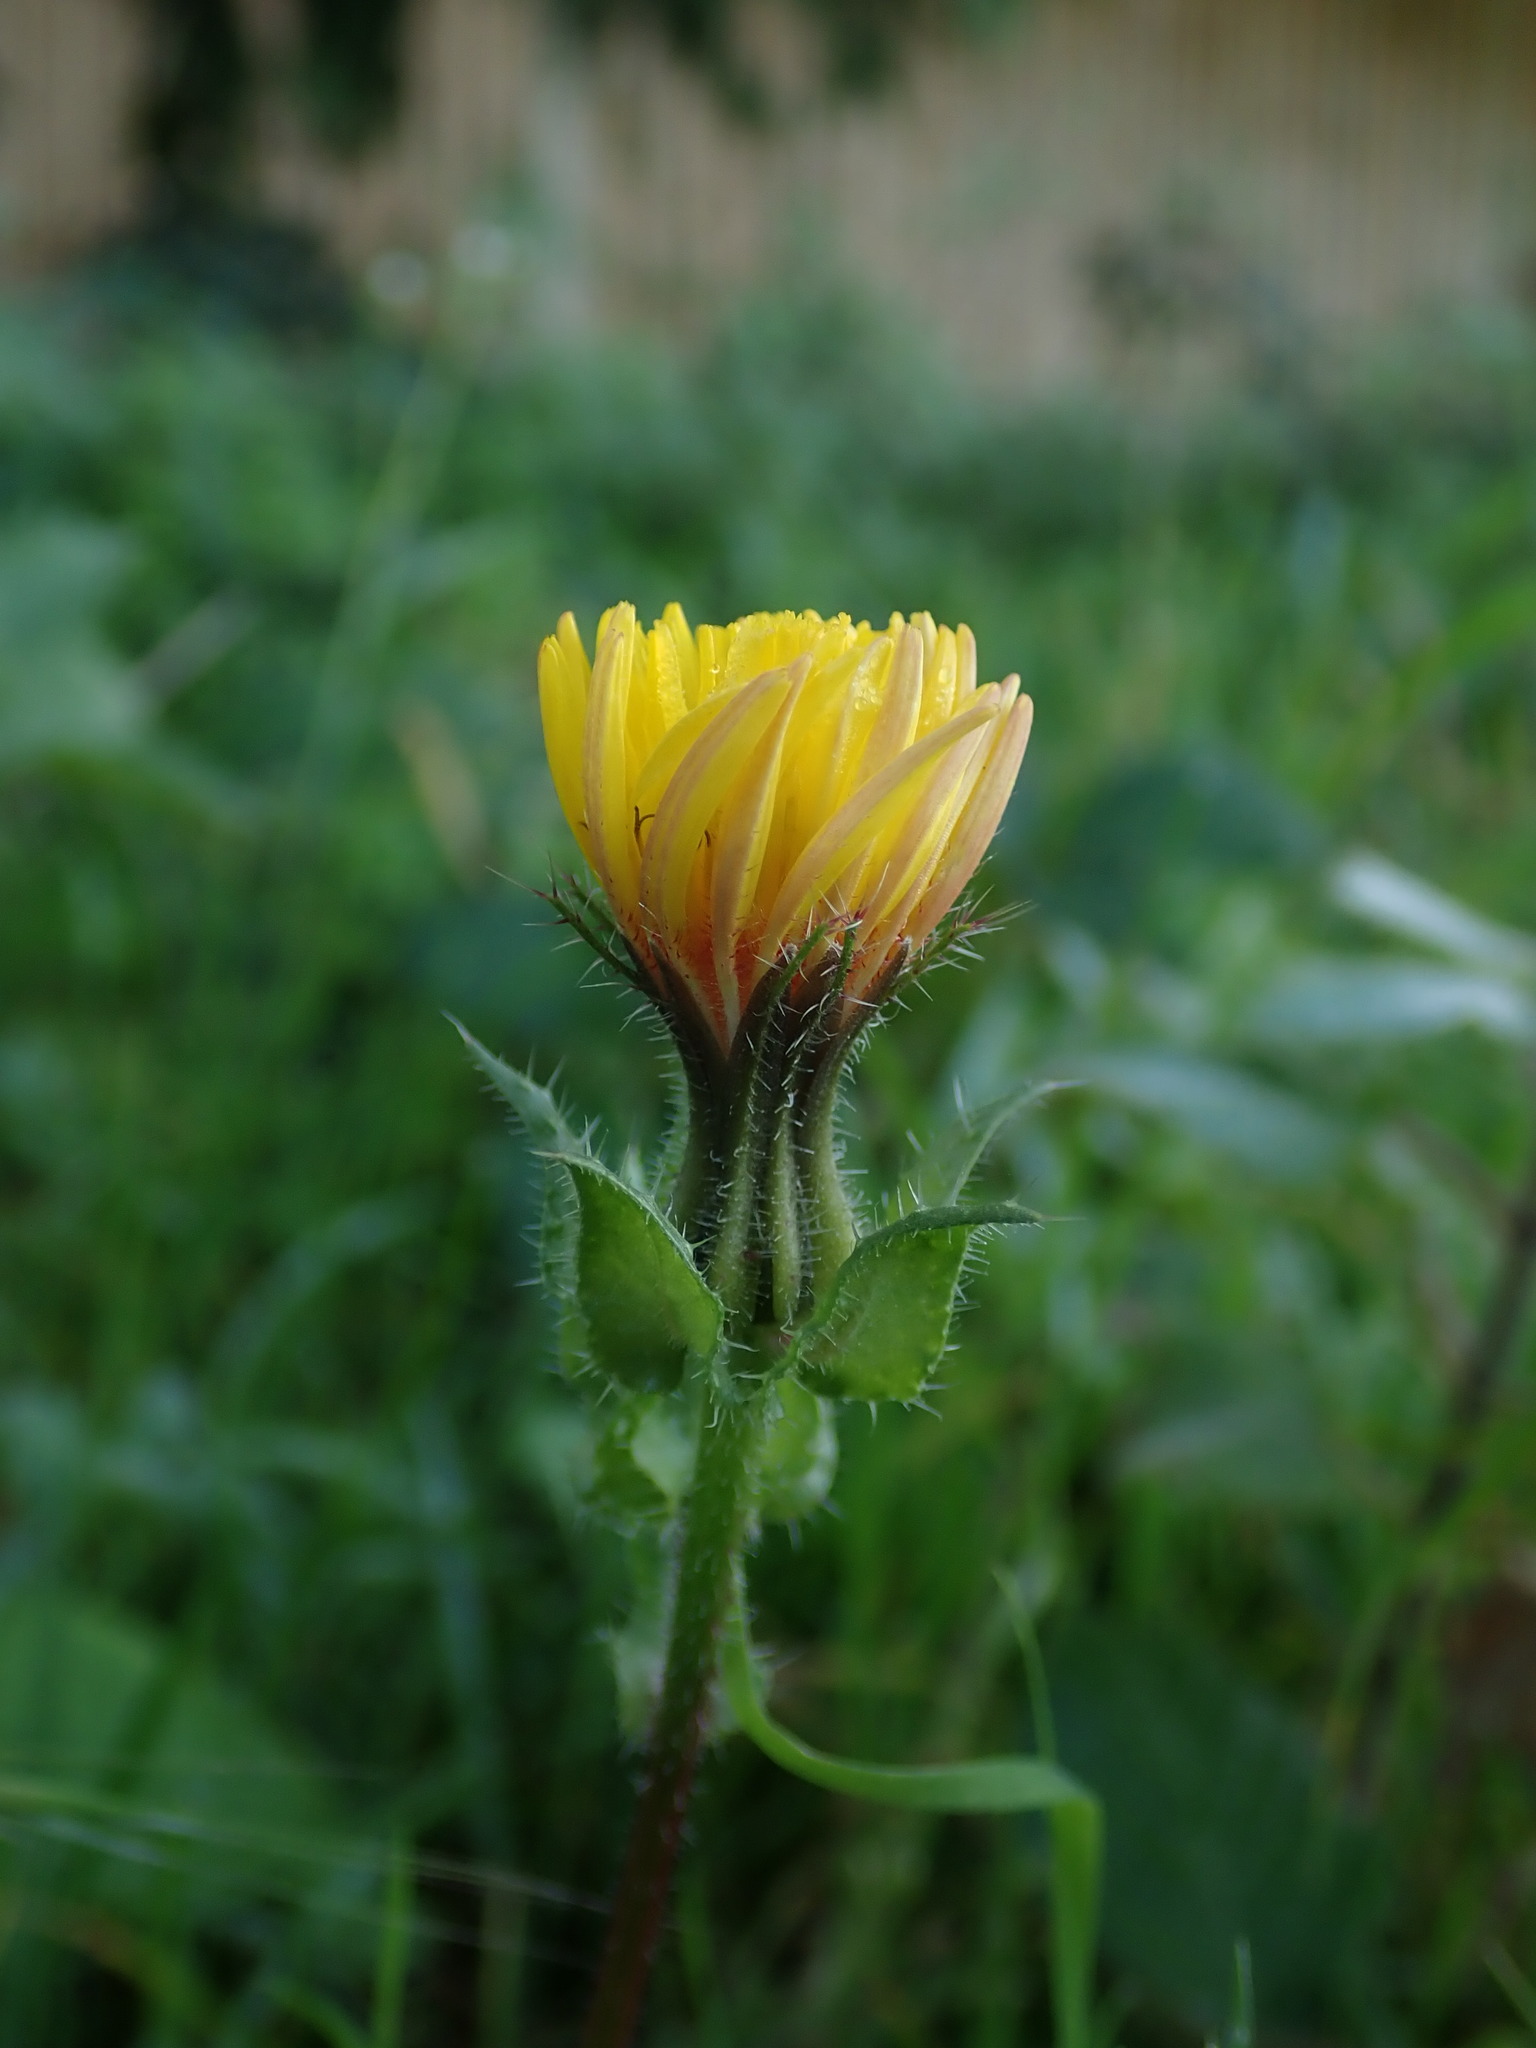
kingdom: Plantae
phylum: Tracheophyta
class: Magnoliopsida
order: Asterales
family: Asteraceae
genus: Helminthotheca
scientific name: Helminthotheca echioides
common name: Ox-tongue
